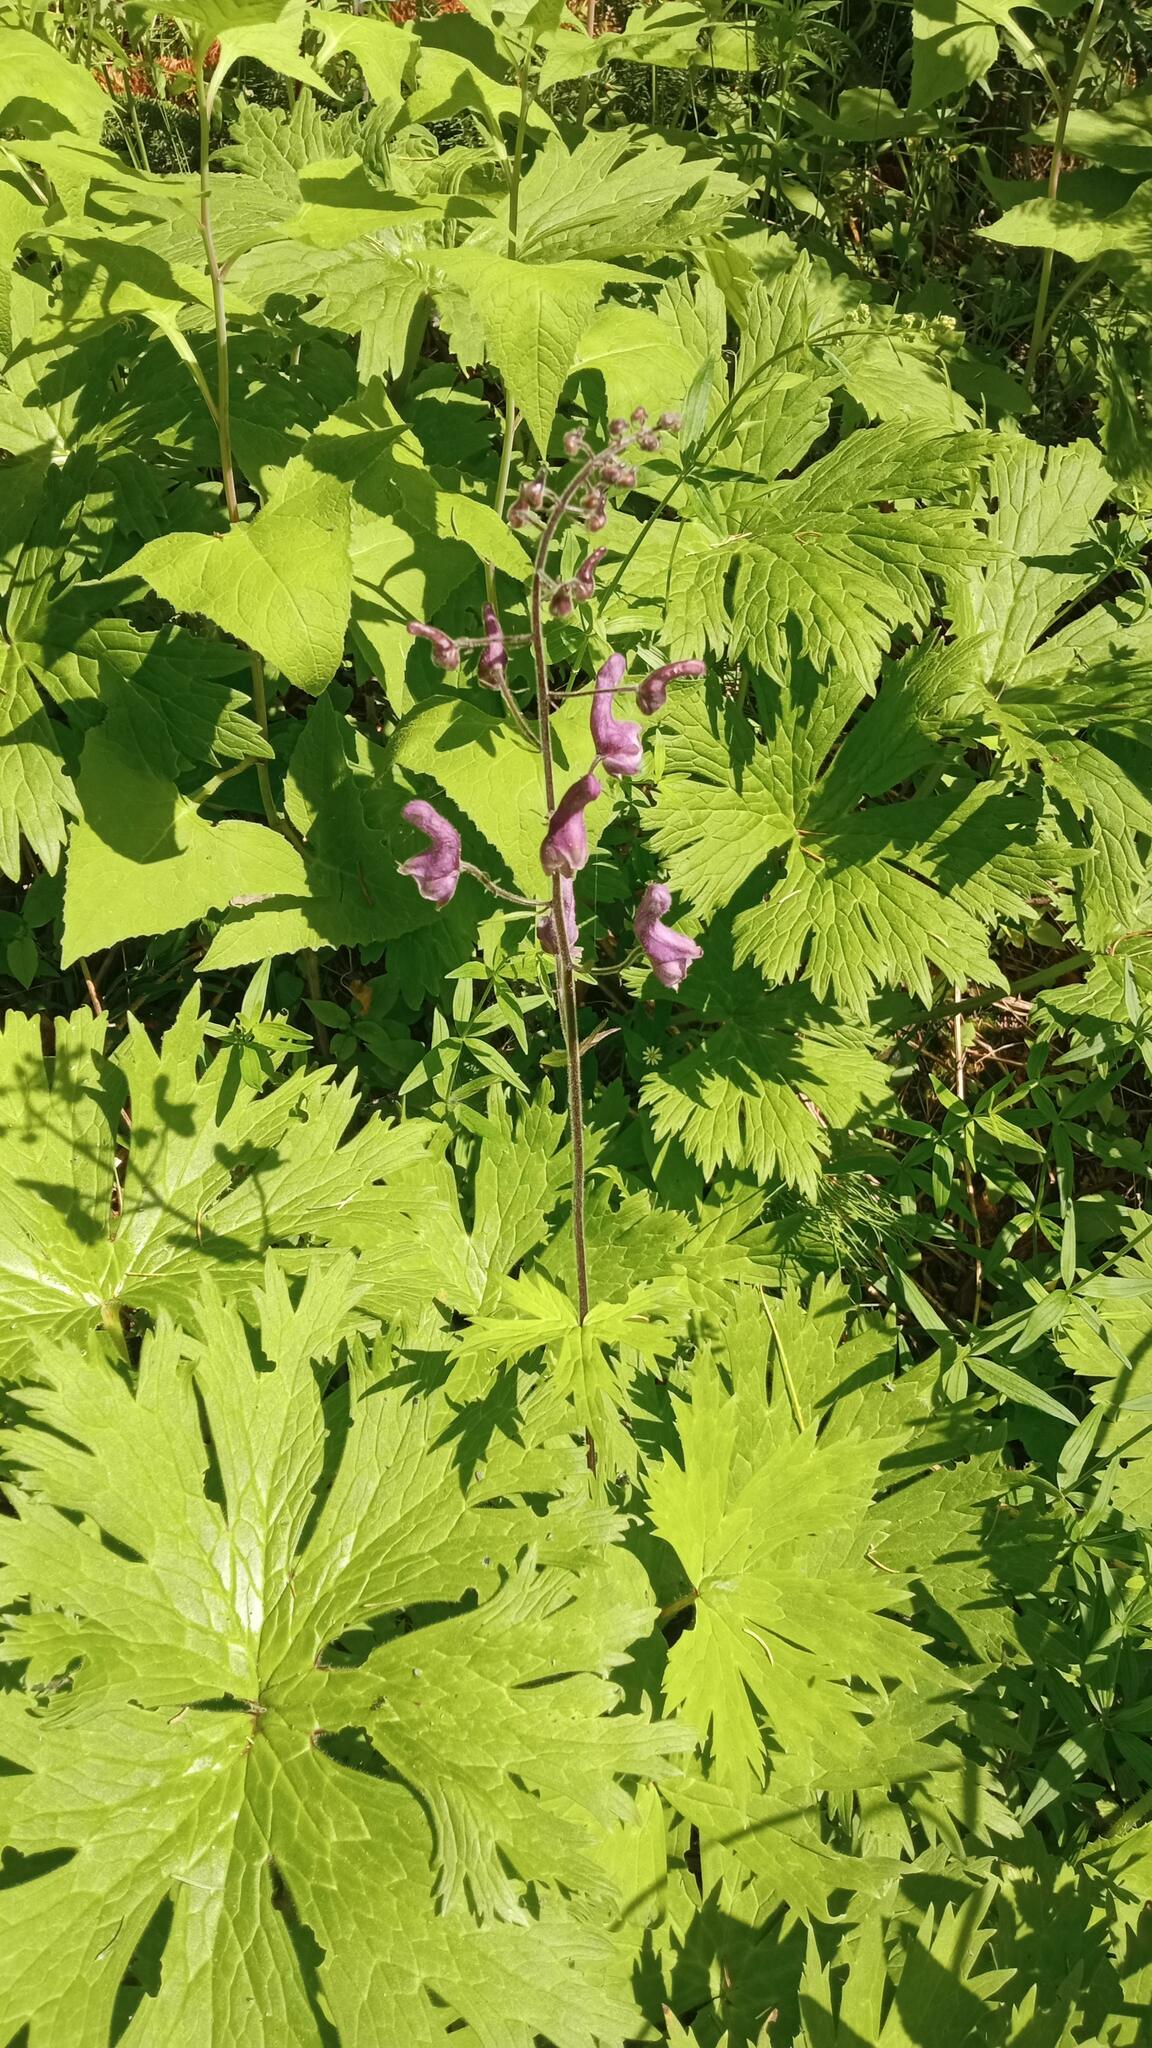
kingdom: Plantae
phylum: Tracheophyta
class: Magnoliopsida
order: Ranunculales
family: Ranunculaceae
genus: Aconitum
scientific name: Aconitum septentrionale
